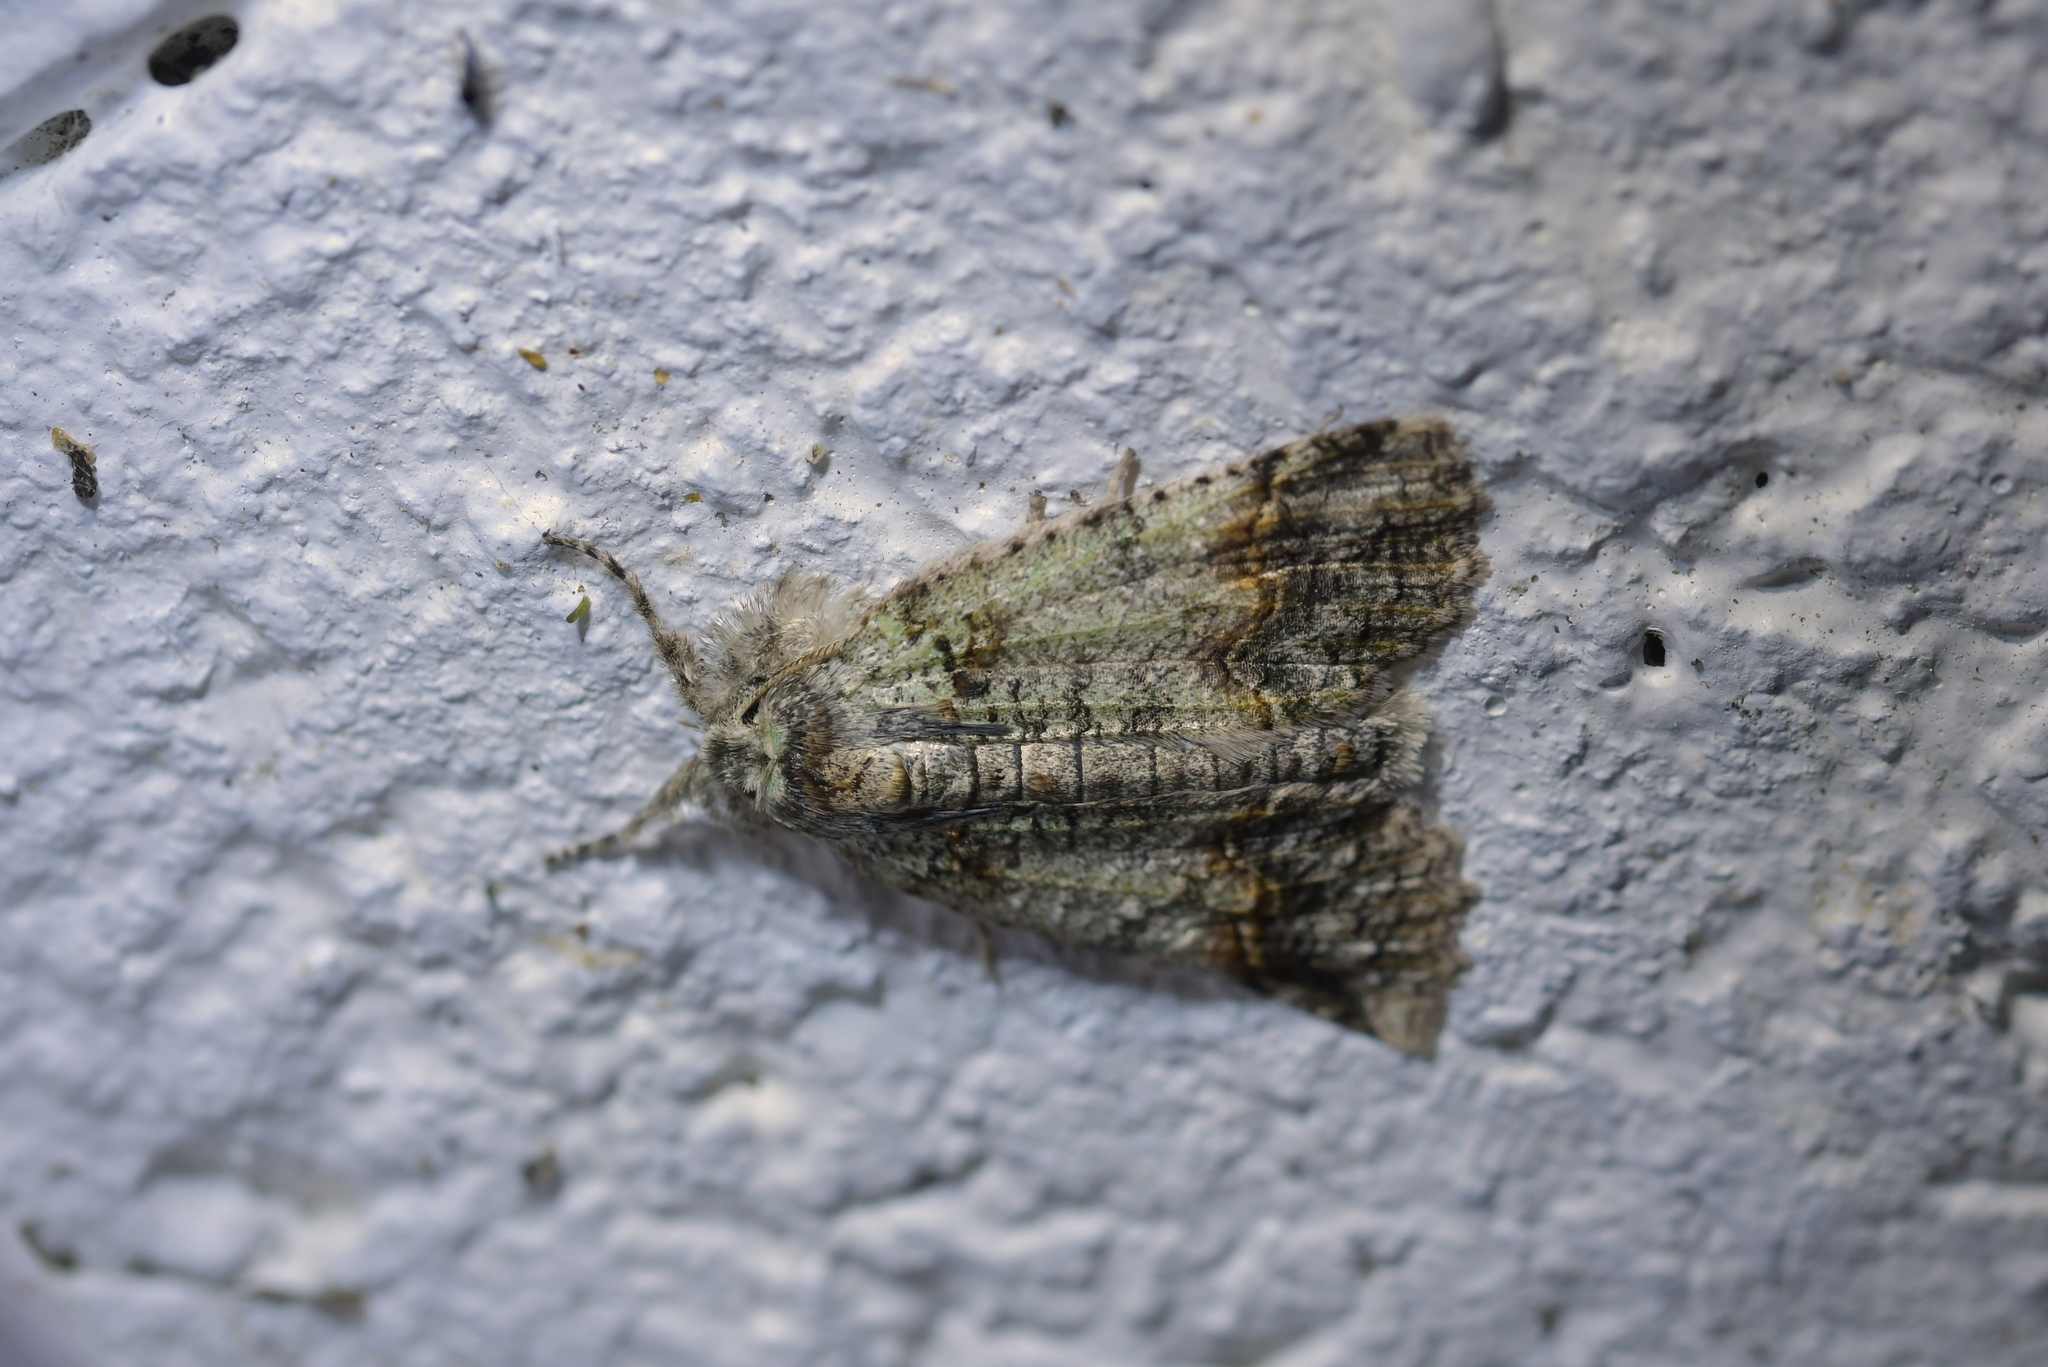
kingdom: Animalia
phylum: Arthropoda
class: Insecta
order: Lepidoptera
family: Geometridae
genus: Declana
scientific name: Declana floccosa
